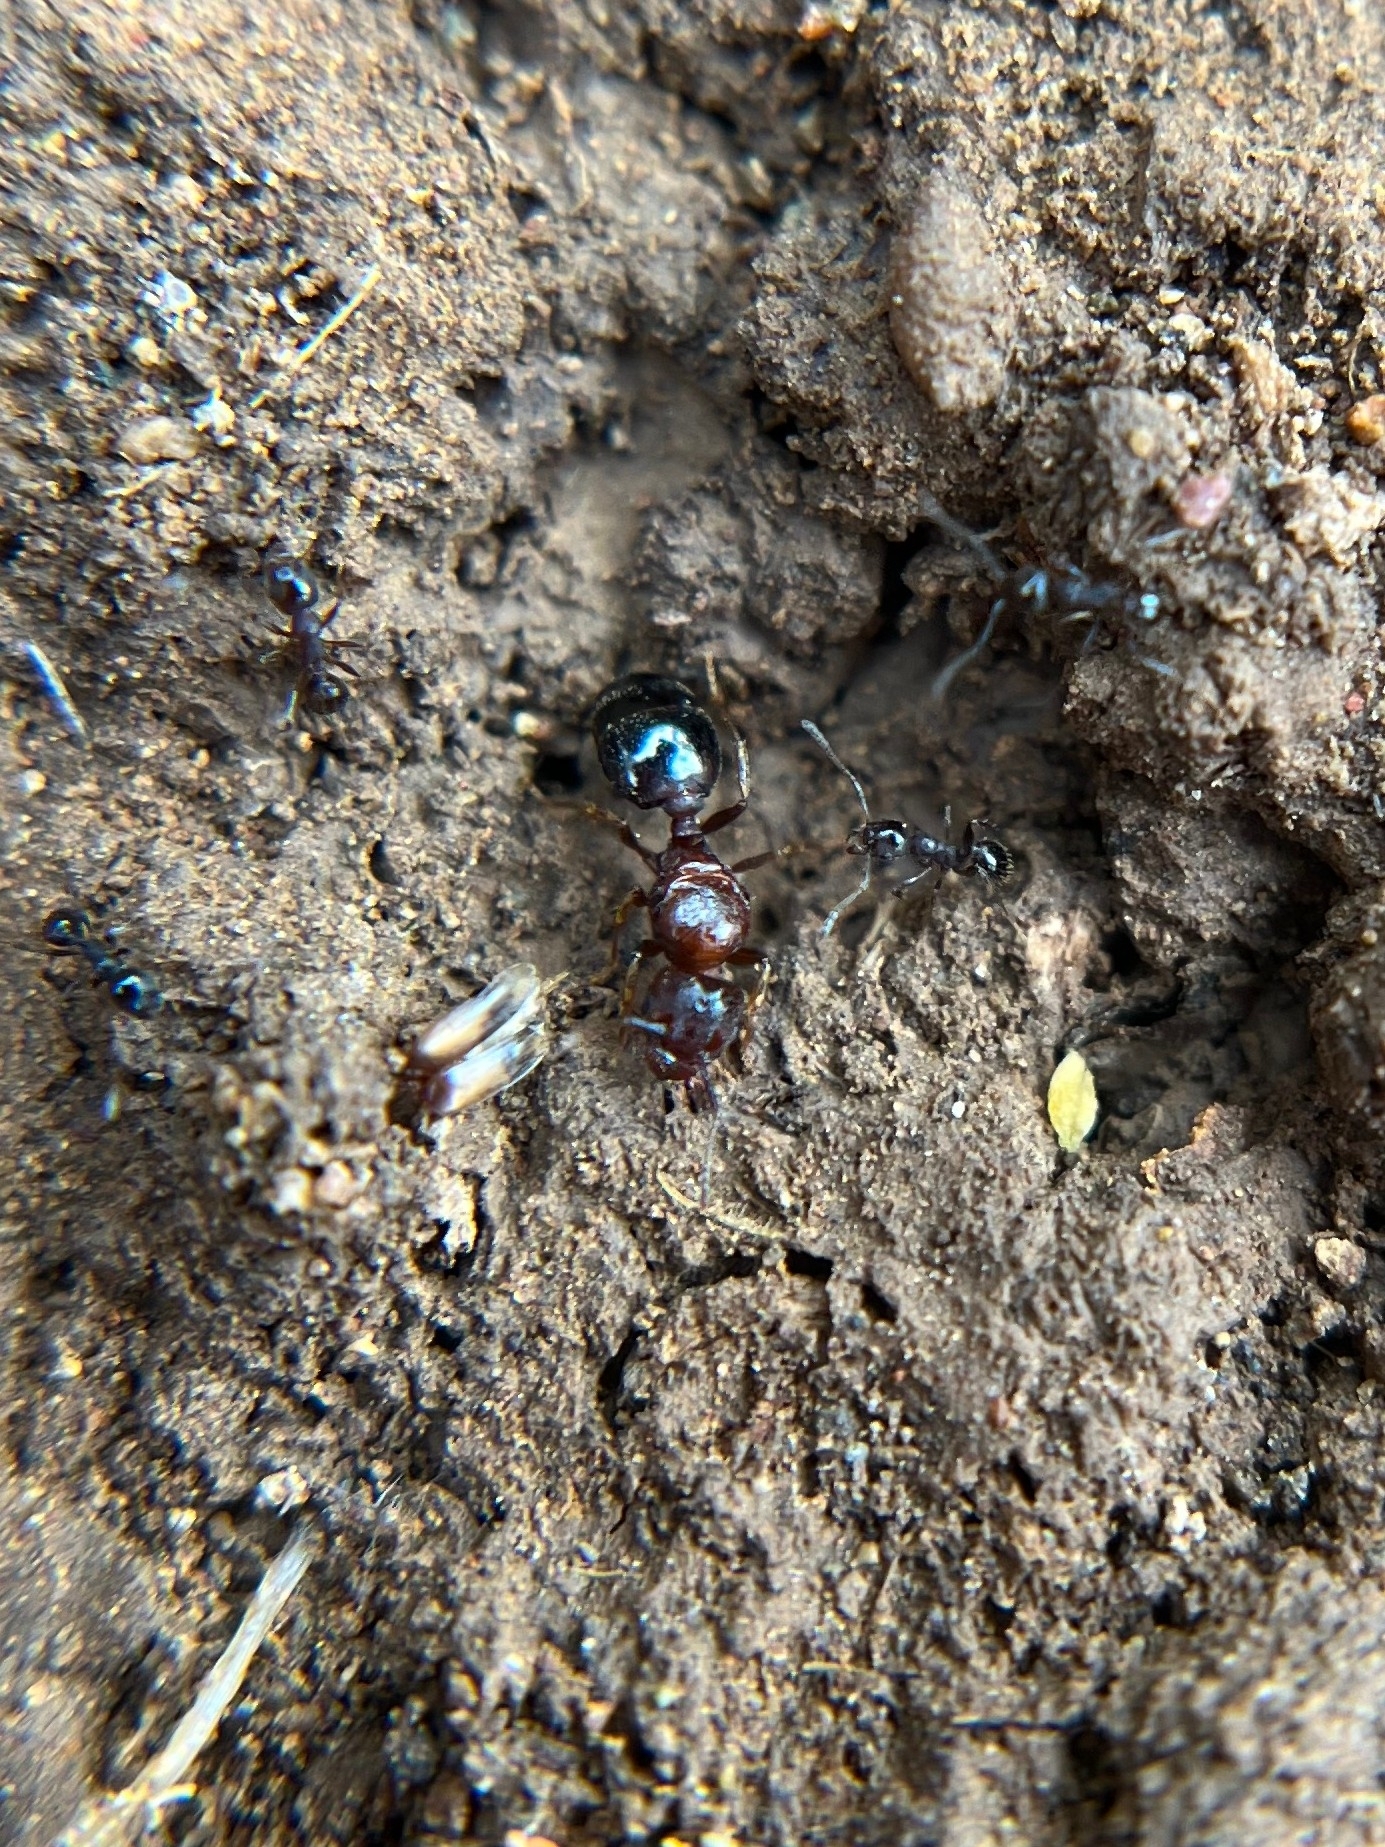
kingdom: Animalia
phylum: Arthropoda
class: Insecta
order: Hymenoptera
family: Formicidae
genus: Pheidole
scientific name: Pheidole
